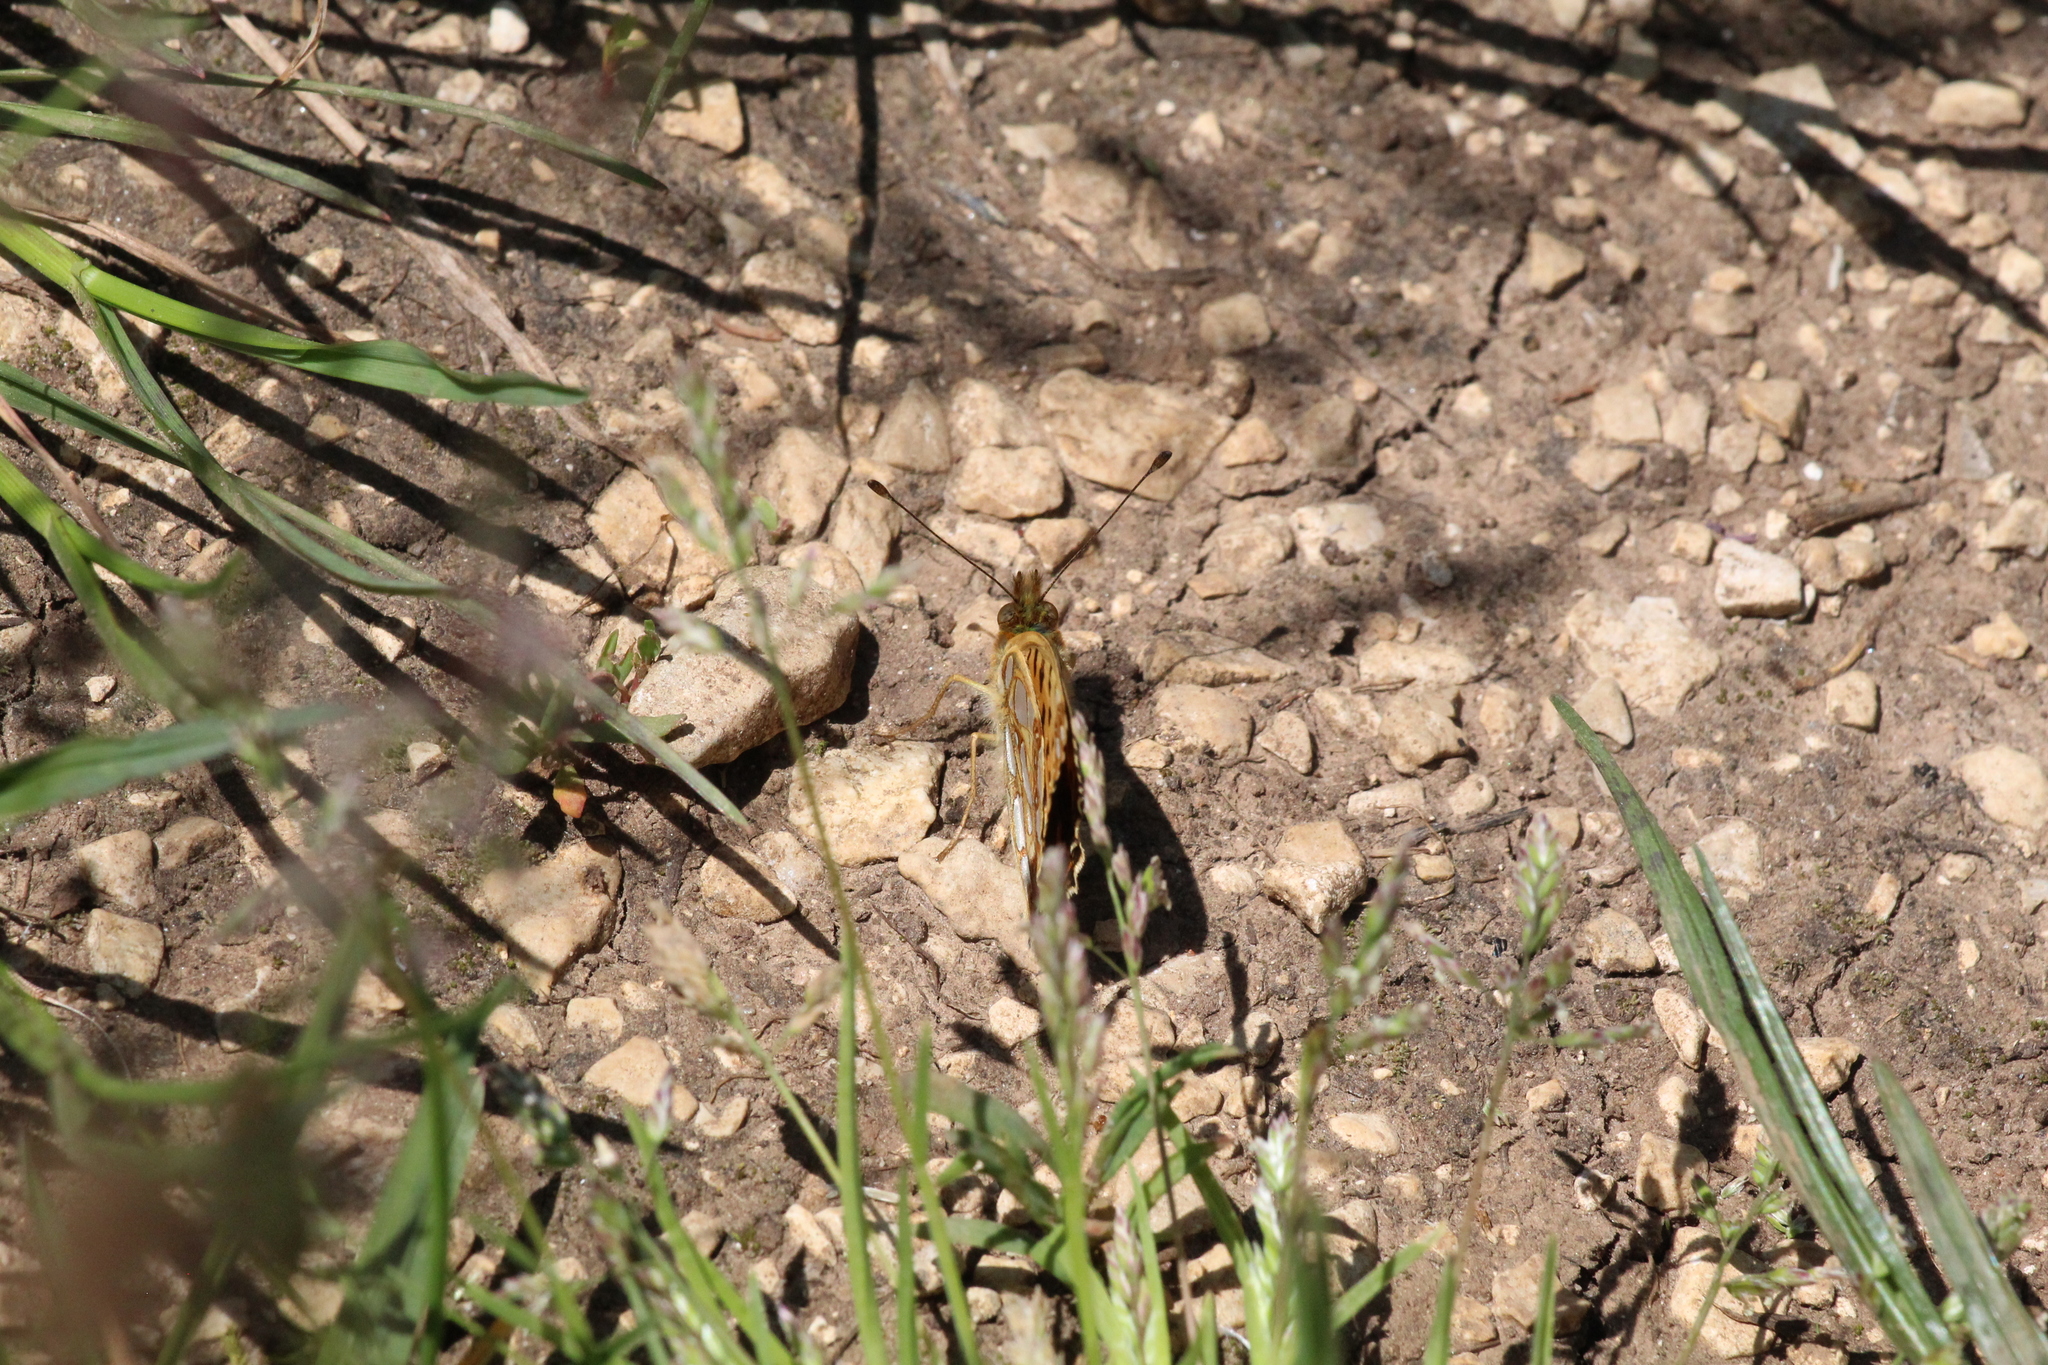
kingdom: Animalia
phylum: Arthropoda
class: Insecta
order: Lepidoptera
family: Nymphalidae
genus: Issoria
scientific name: Issoria lathonia
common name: Queen of spain fritillary
